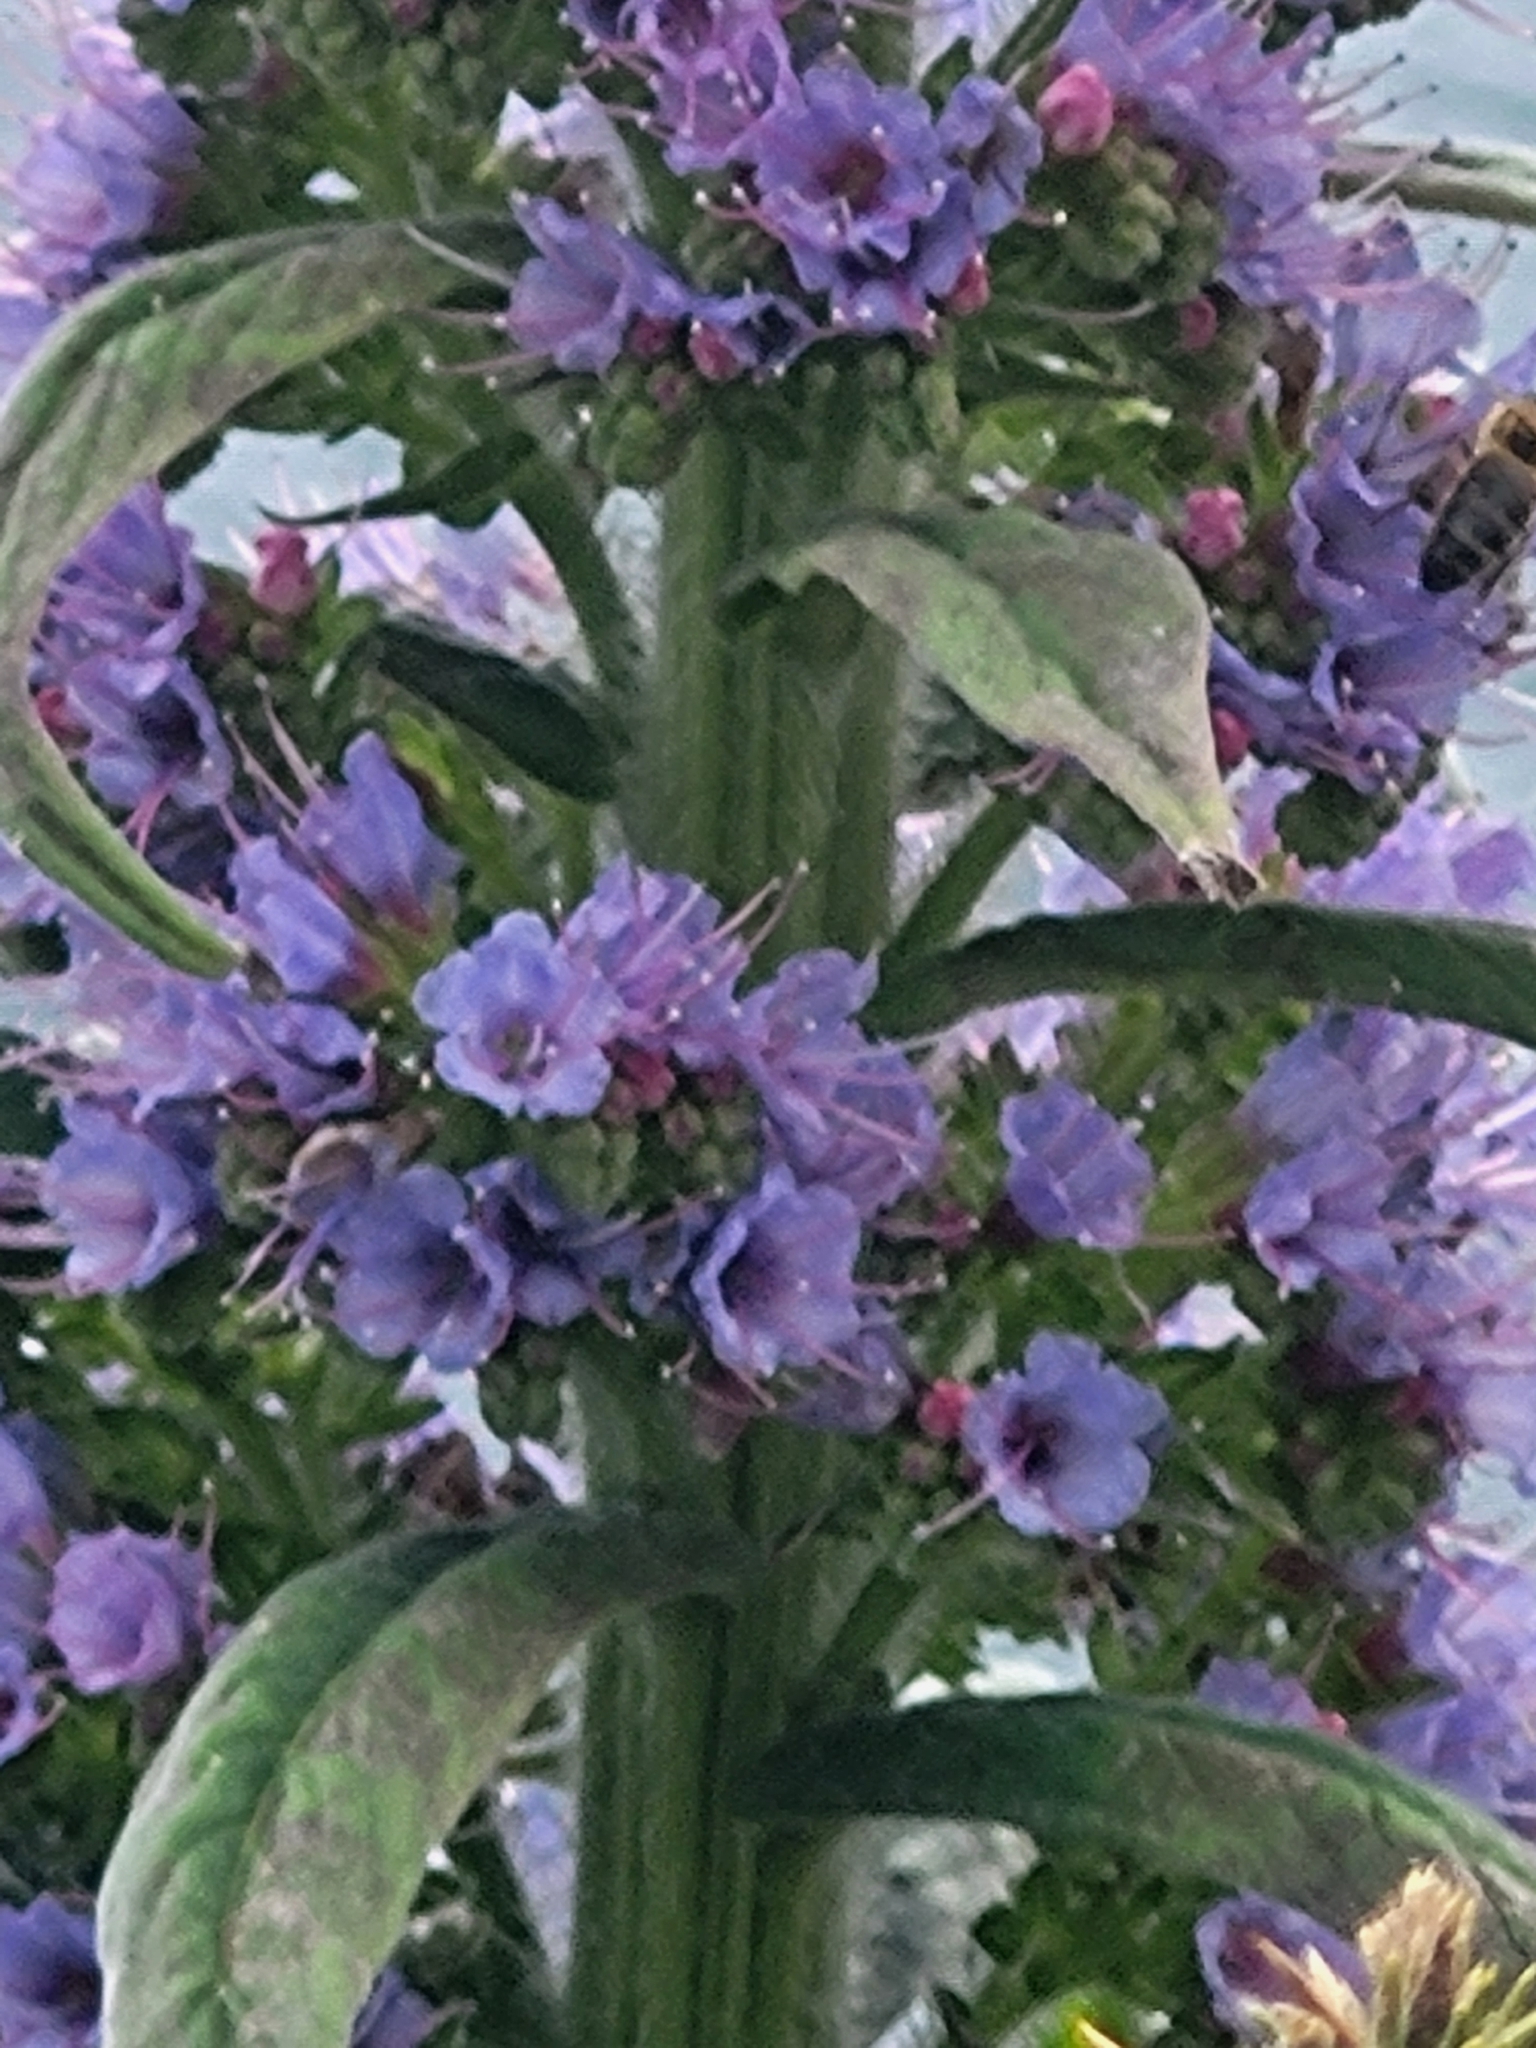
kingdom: Plantae
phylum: Tracheophyta
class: Magnoliopsida
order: Boraginales
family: Boraginaceae
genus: Echium
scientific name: Echium pininana
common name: Giant viper's-bugloss
